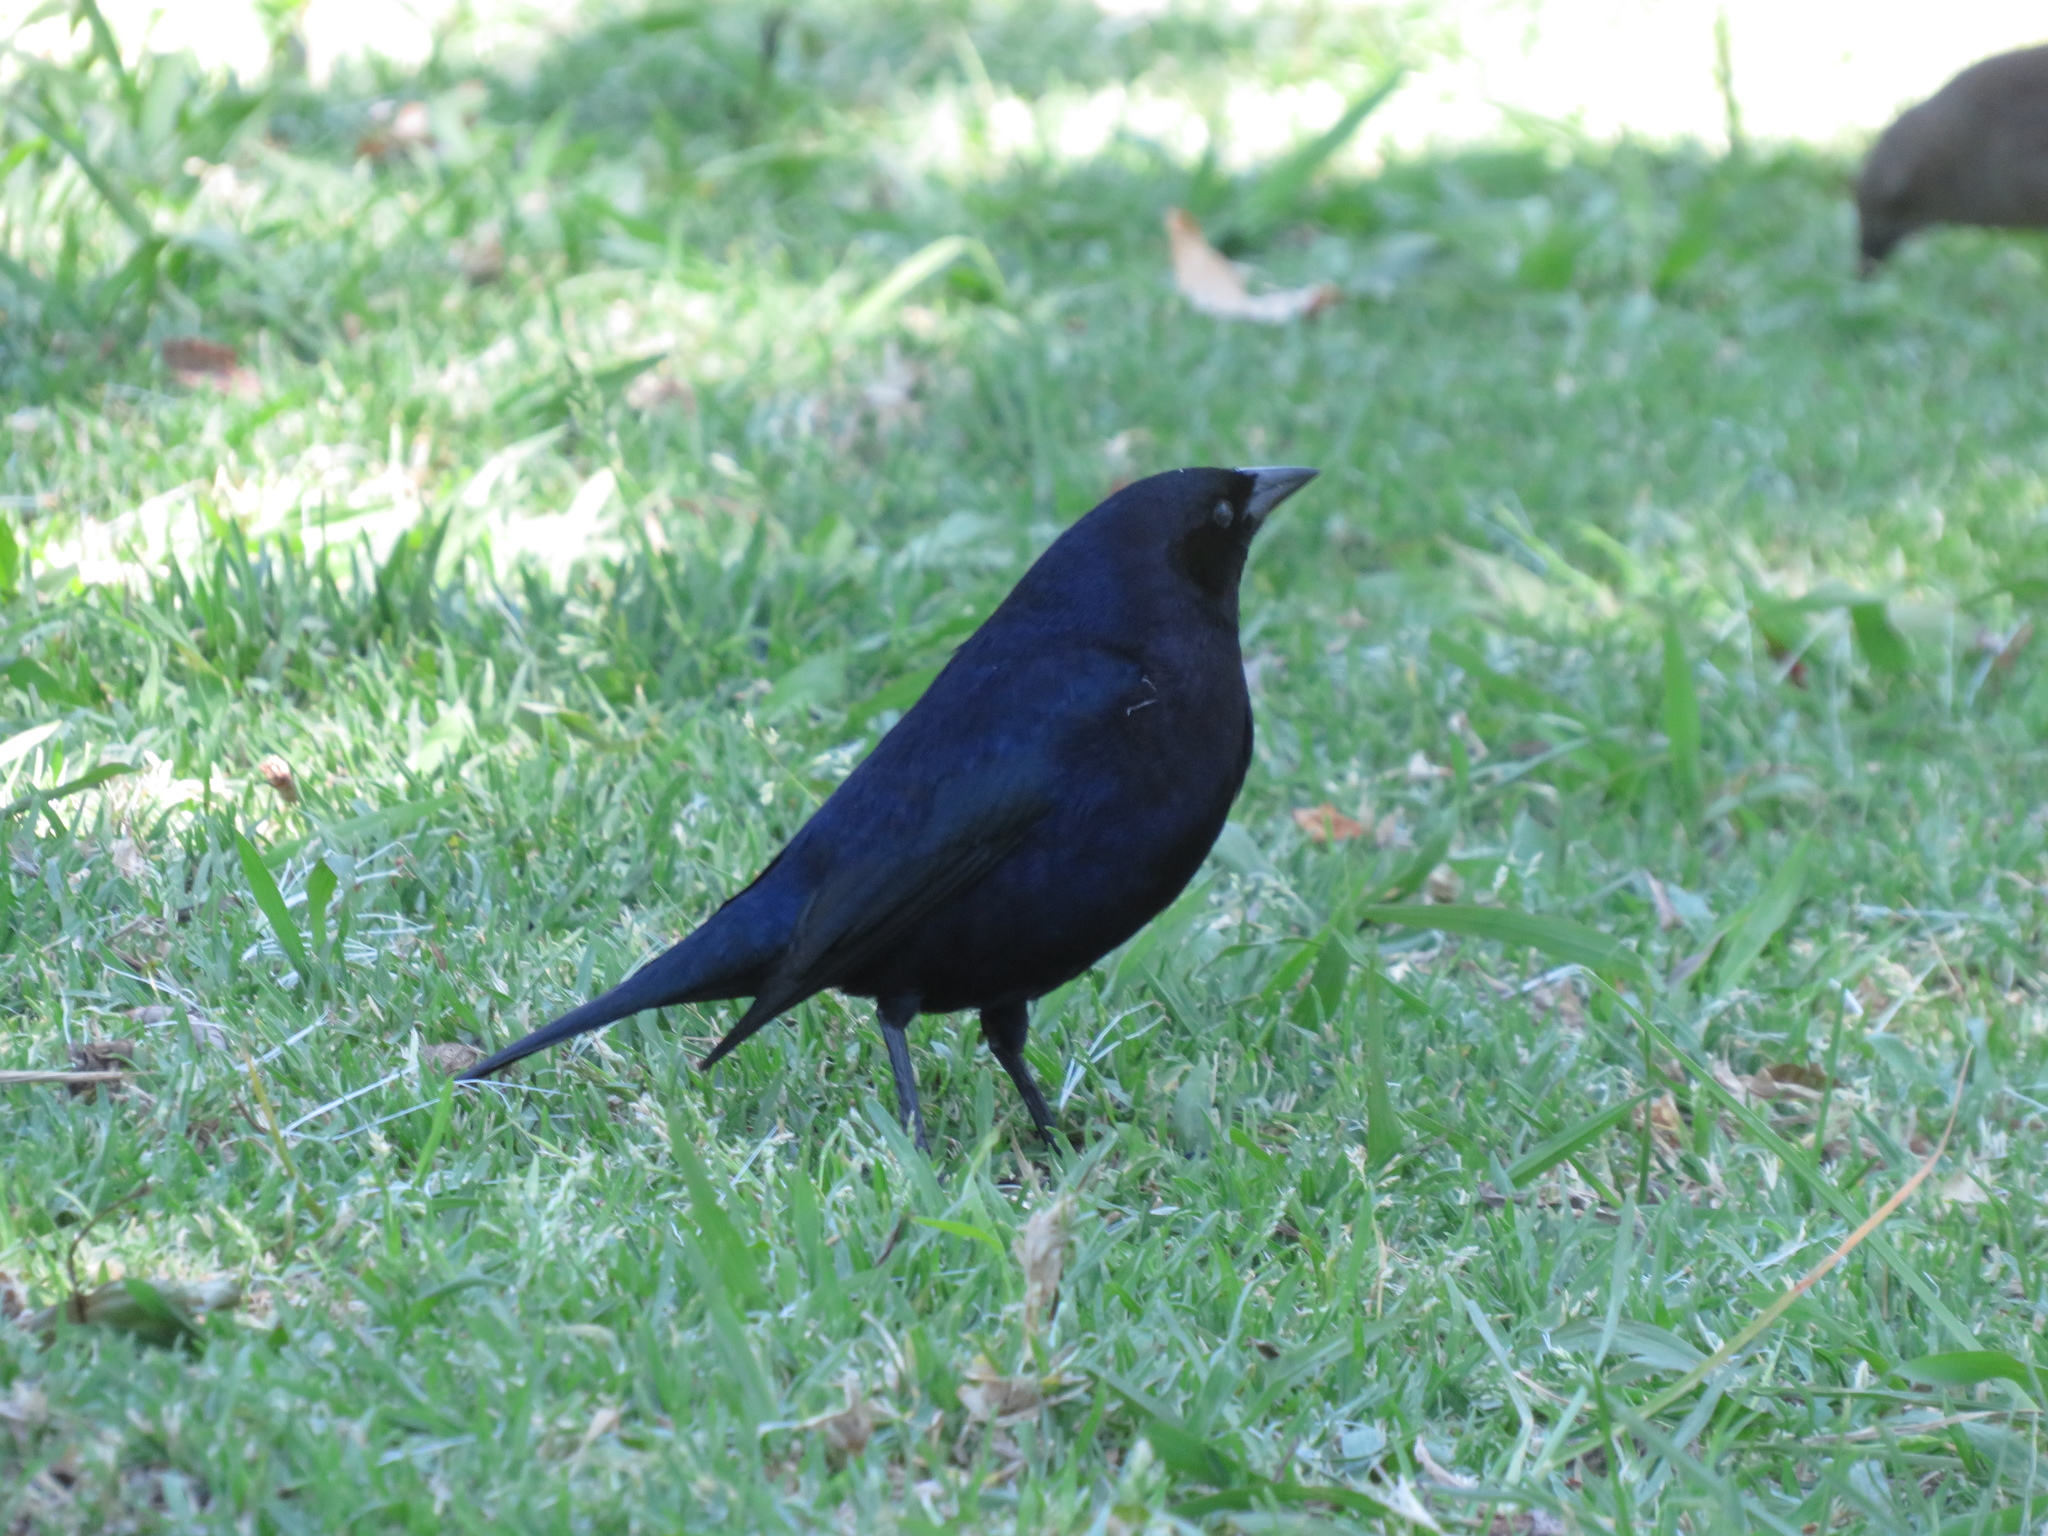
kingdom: Animalia
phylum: Chordata
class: Aves
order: Passeriformes
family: Icteridae
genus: Molothrus
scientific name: Molothrus bonariensis
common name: Shiny cowbird
